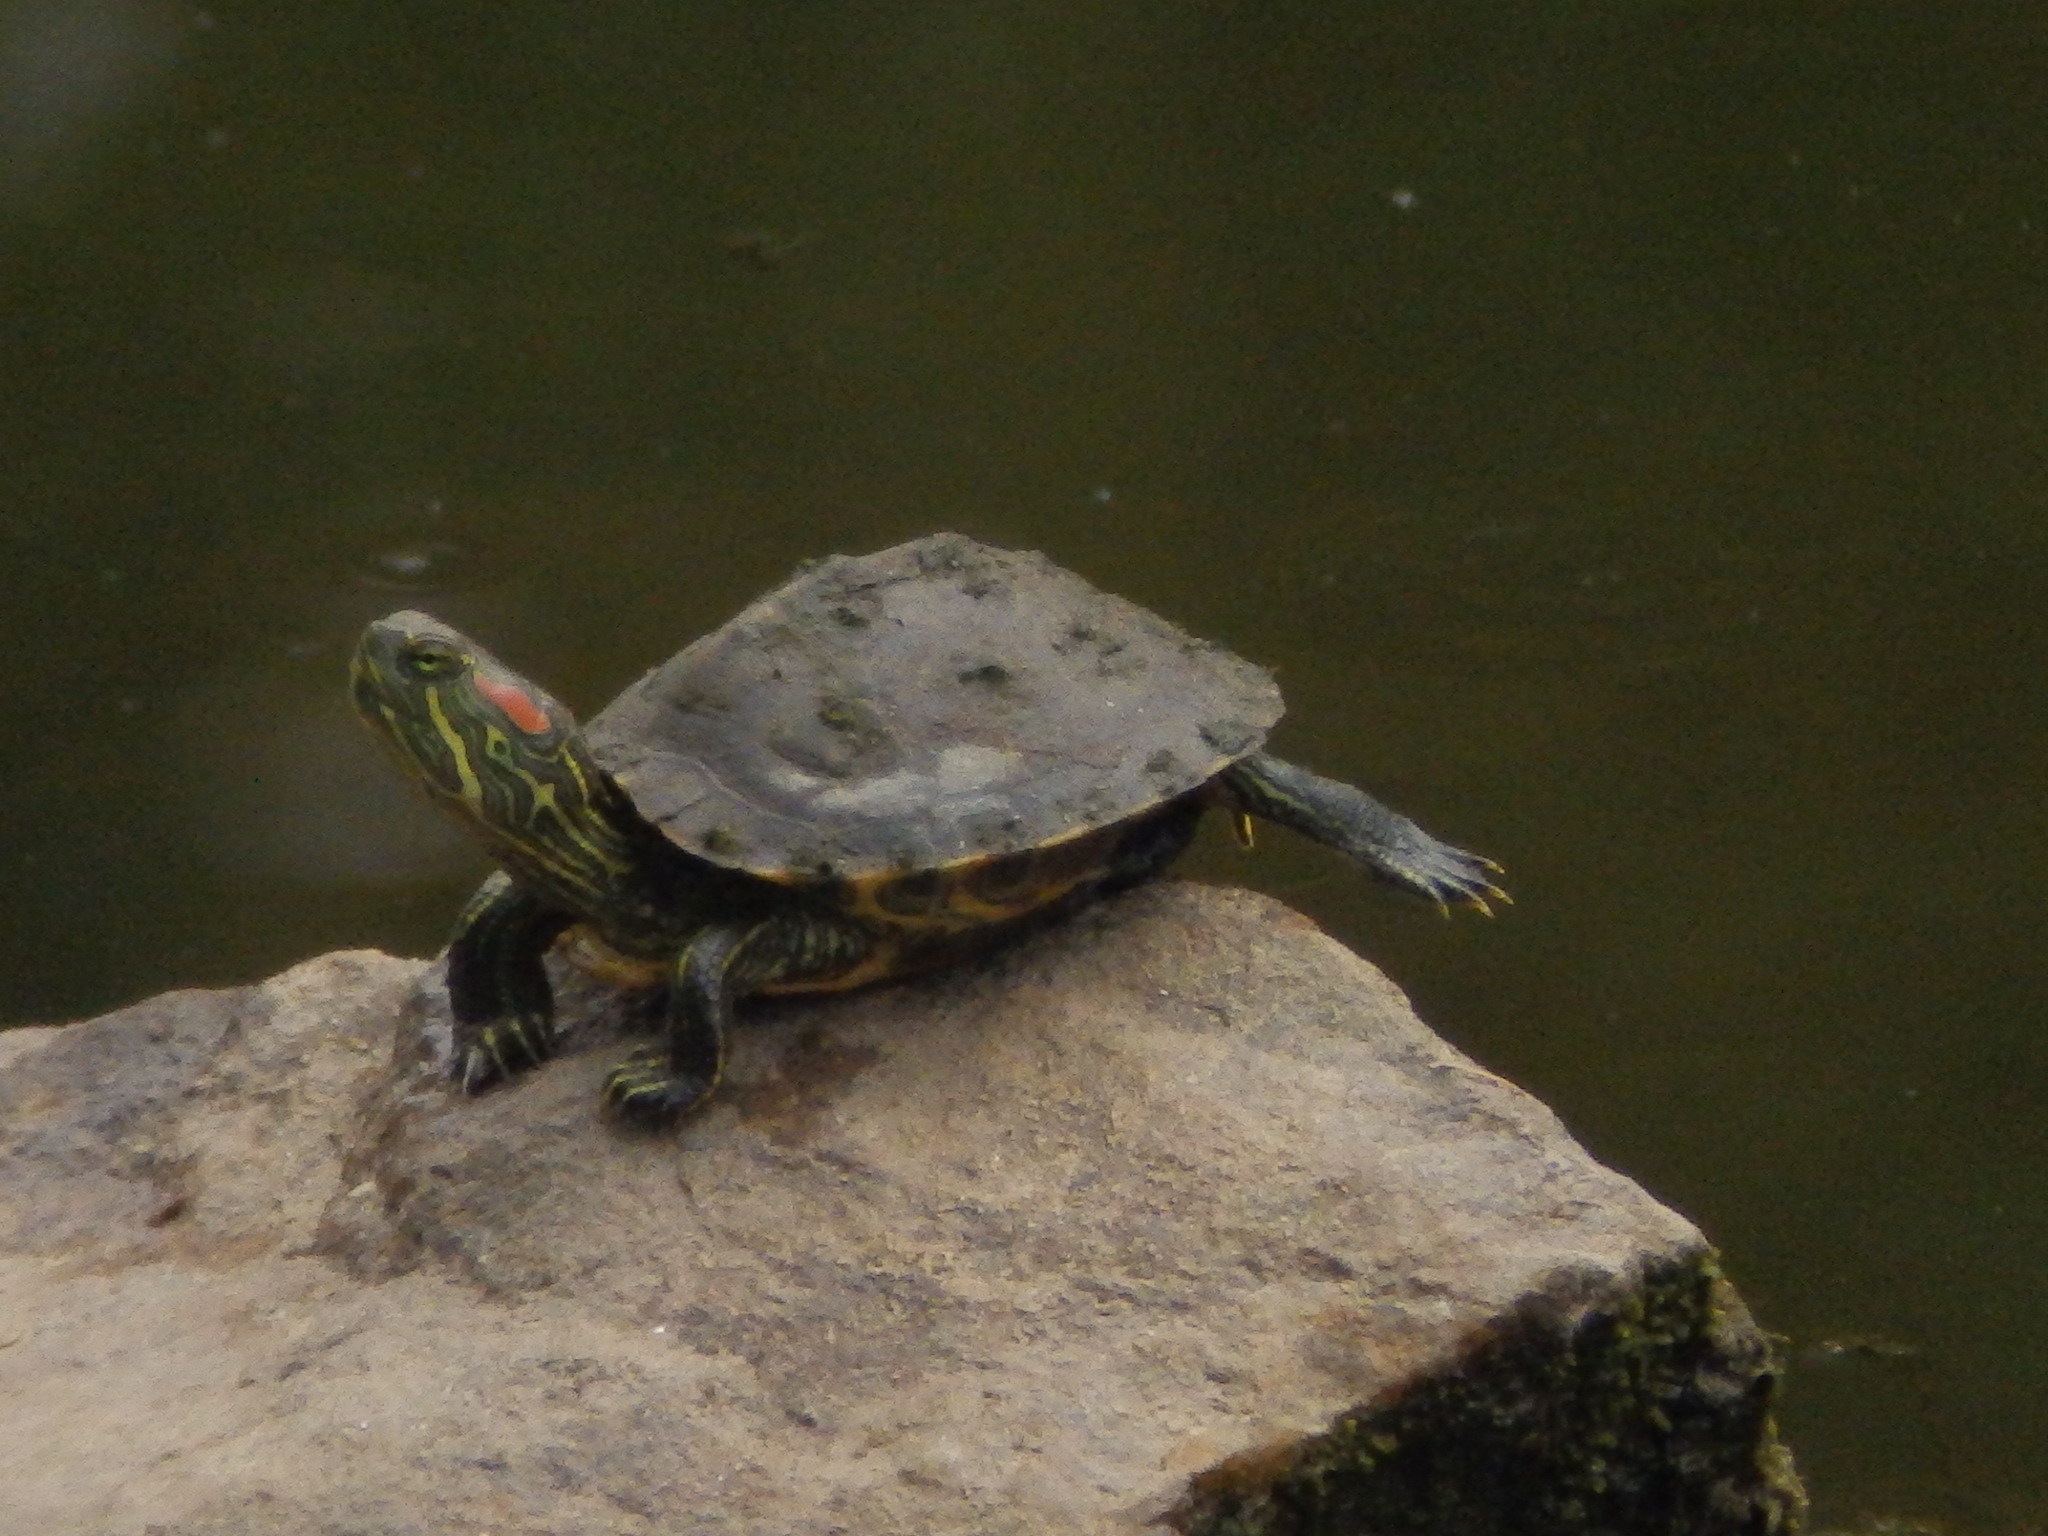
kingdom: Animalia
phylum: Chordata
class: Testudines
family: Emydidae
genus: Trachemys
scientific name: Trachemys scripta
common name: Slider
